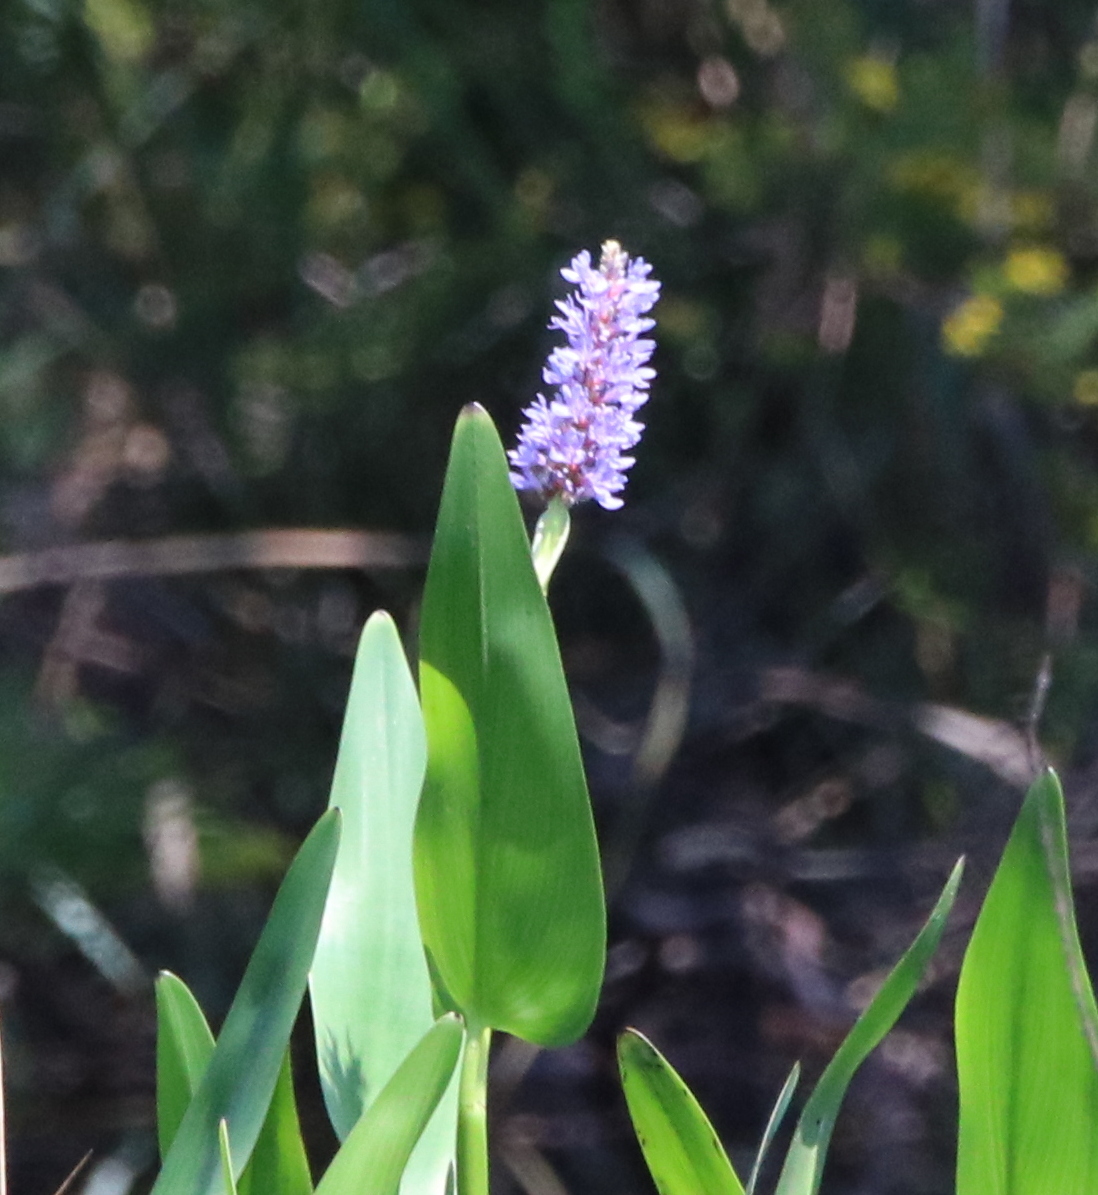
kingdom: Plantae
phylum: Tracheophyta
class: Liliopsida
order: Commelinales
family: Pontederiaceae
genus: Pontederia
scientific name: Pontederia cordata
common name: Pickerelweed
